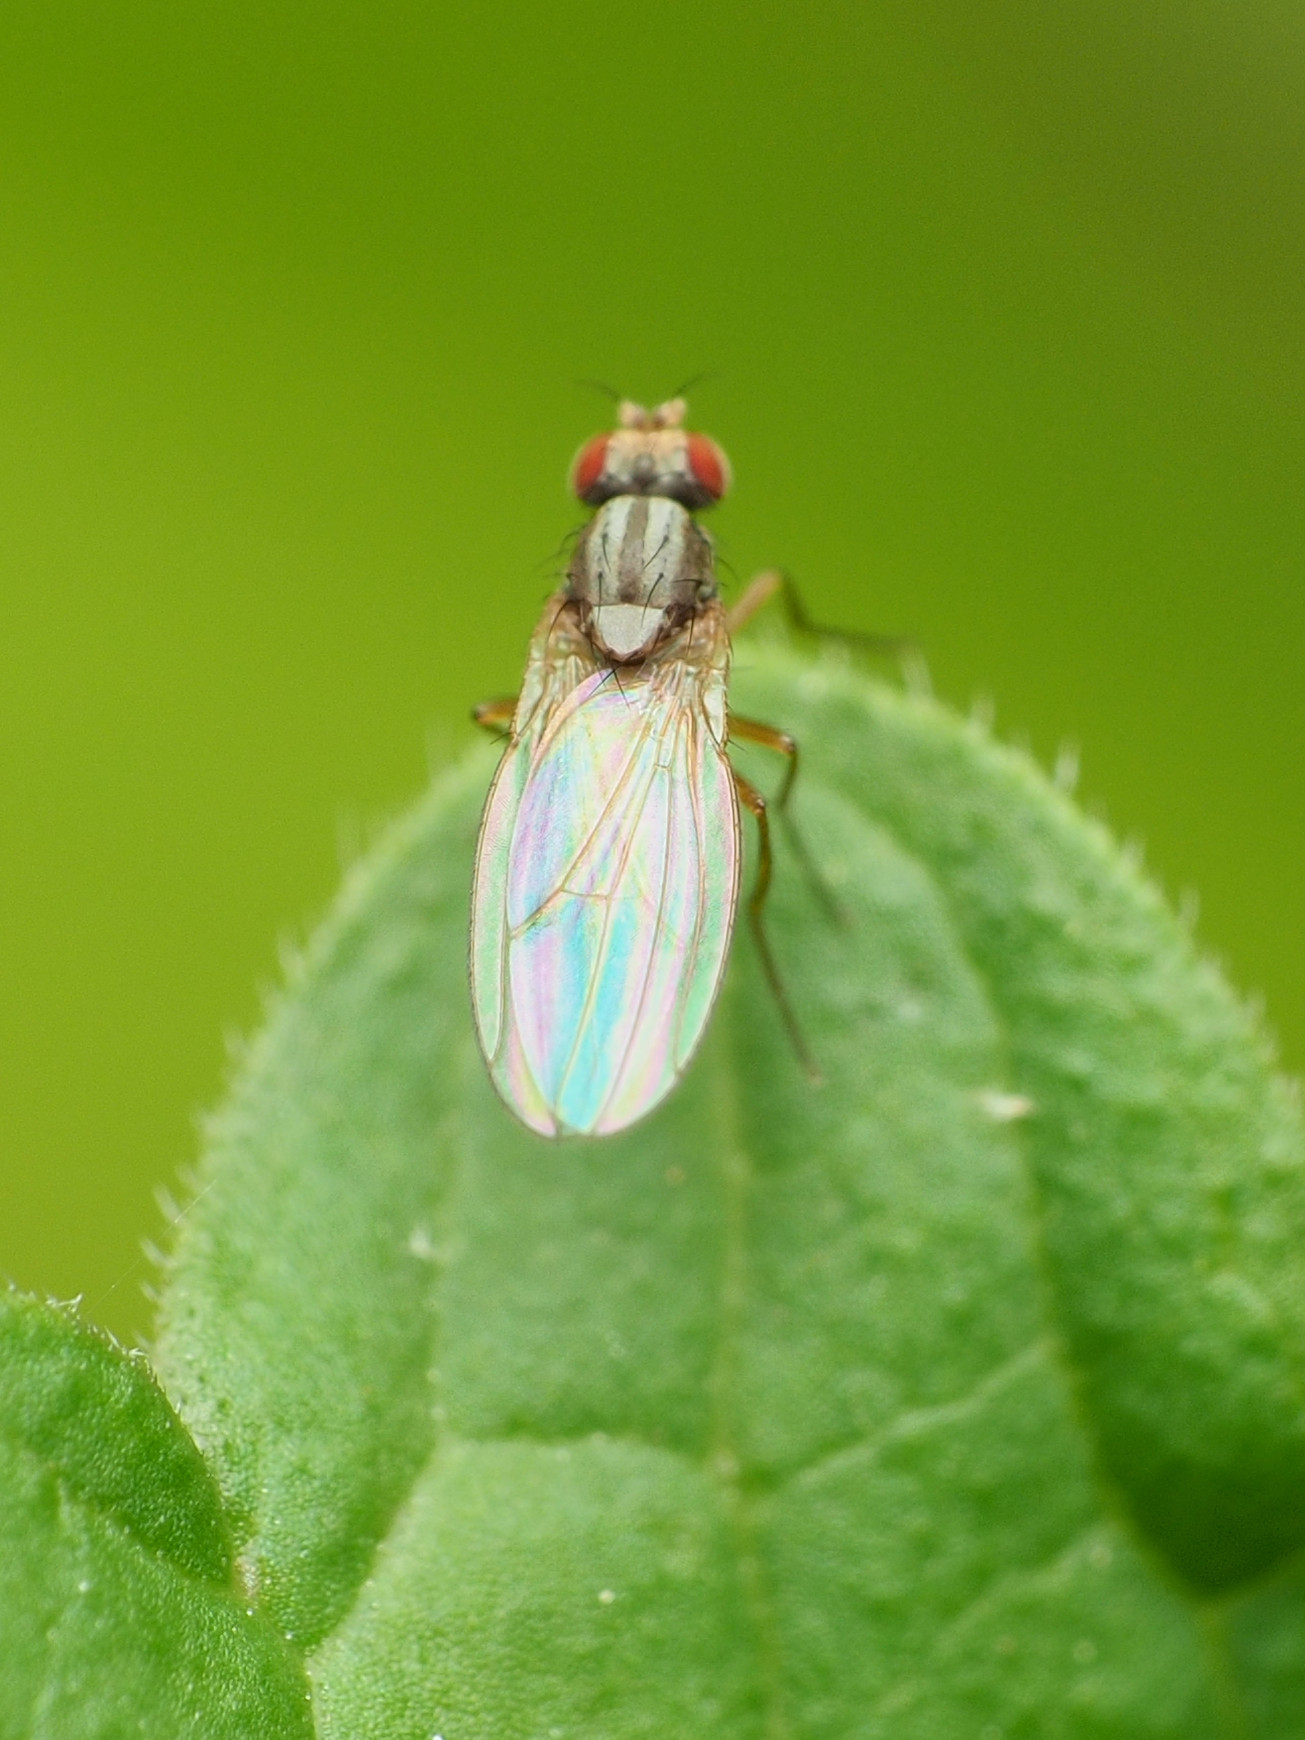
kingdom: Animalia
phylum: Arthropoda
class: Insecta
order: Diptera
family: Drosophilidae
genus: Scaptomyza
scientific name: Scaptomyza pallida
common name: Pomace fly
